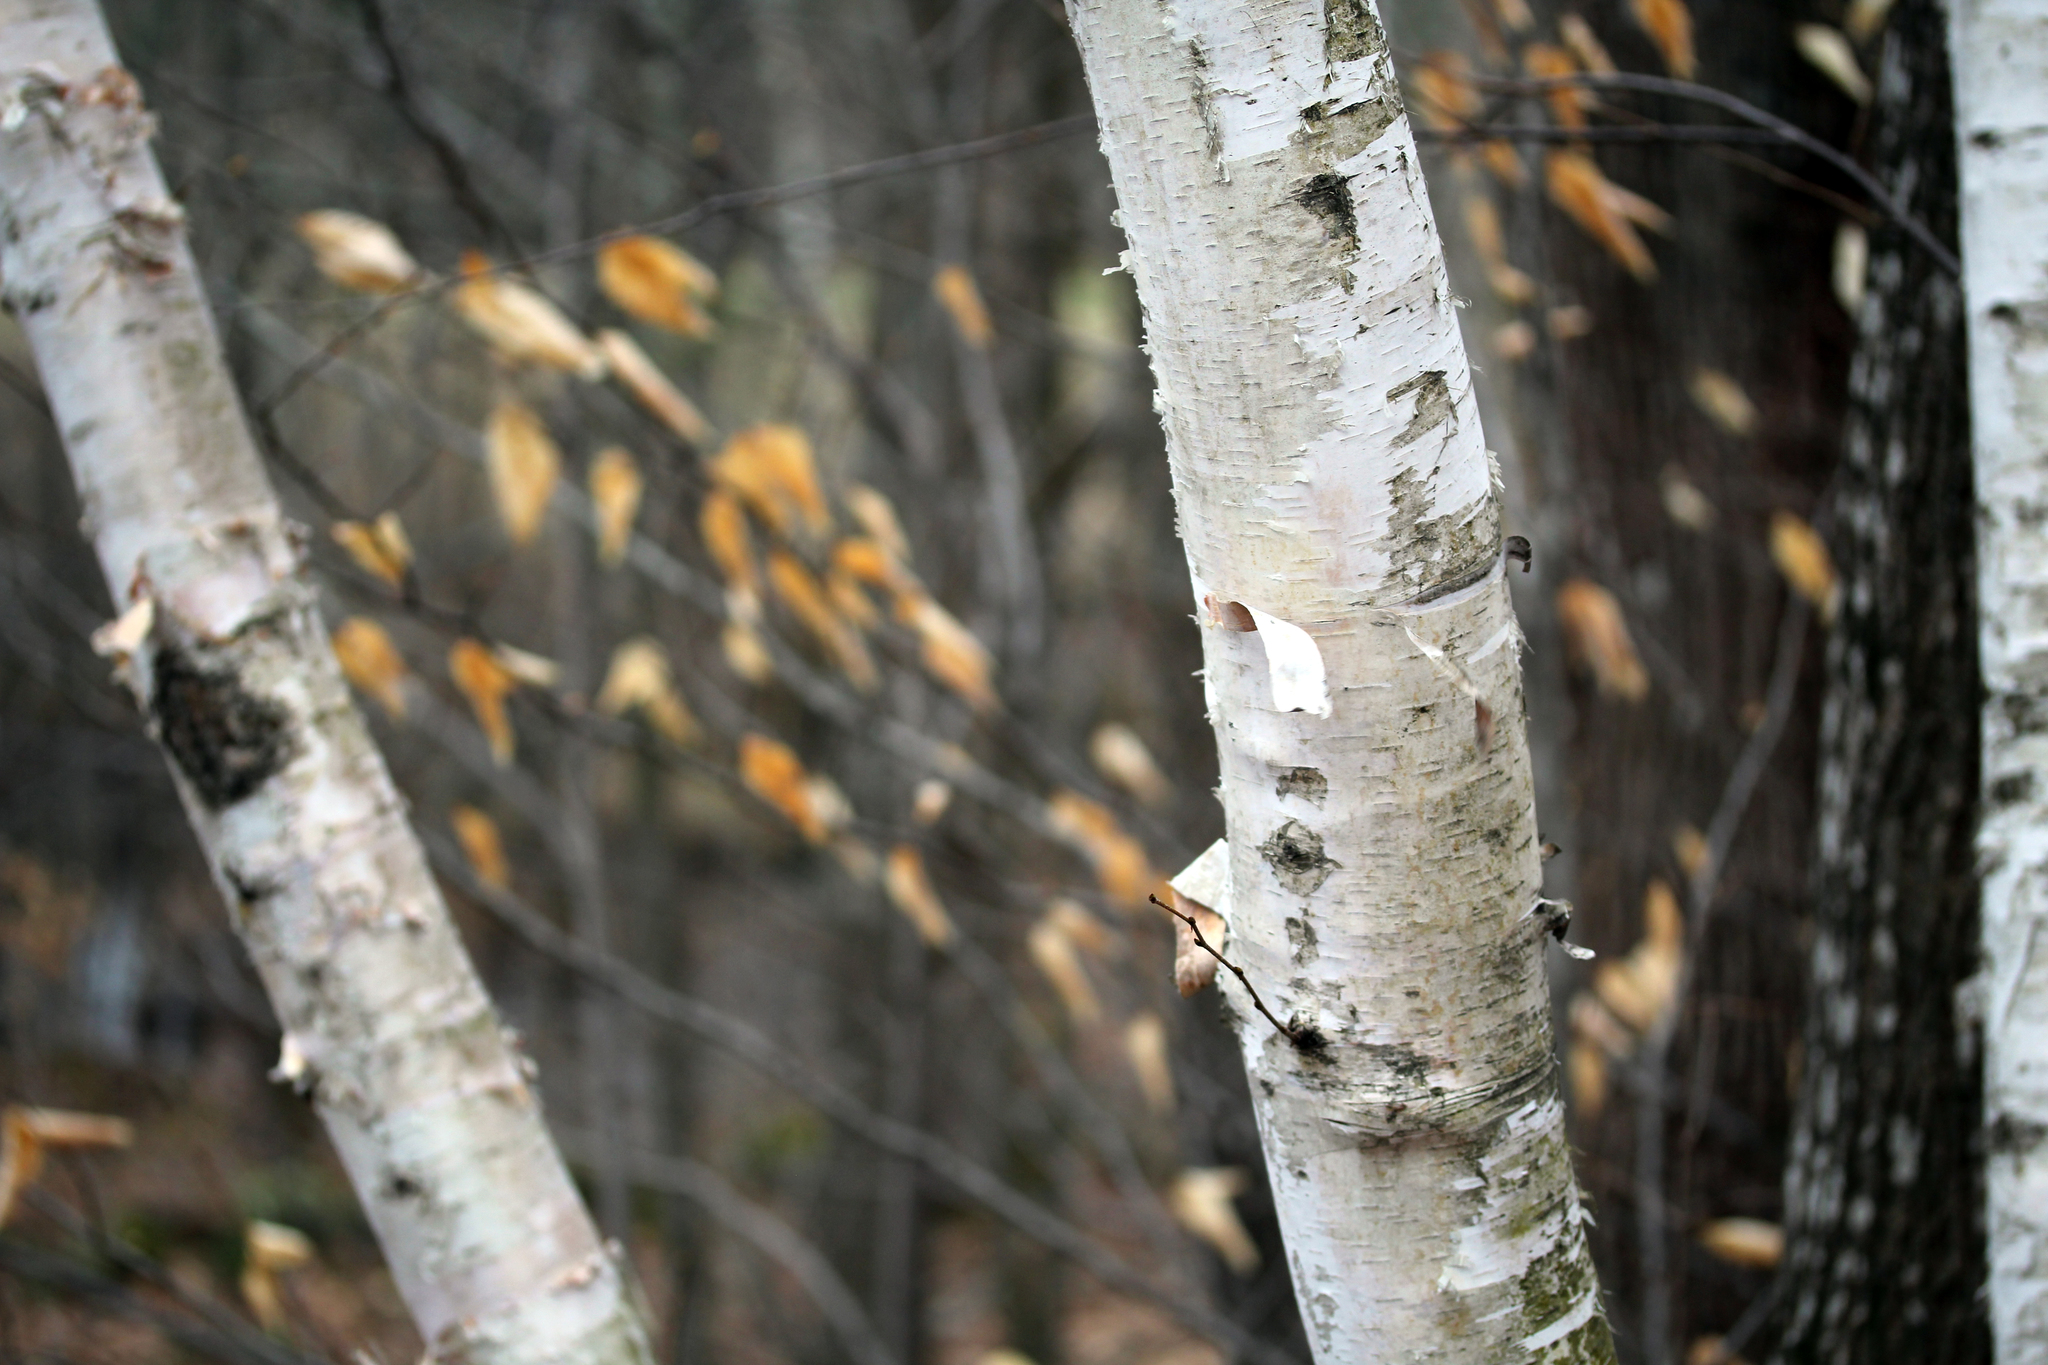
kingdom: Plantae
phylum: Tracheophyta
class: Magnoliopsida
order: Fagales
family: Betulaceae
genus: Betula
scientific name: Betula papyrifera
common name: Paper birch
